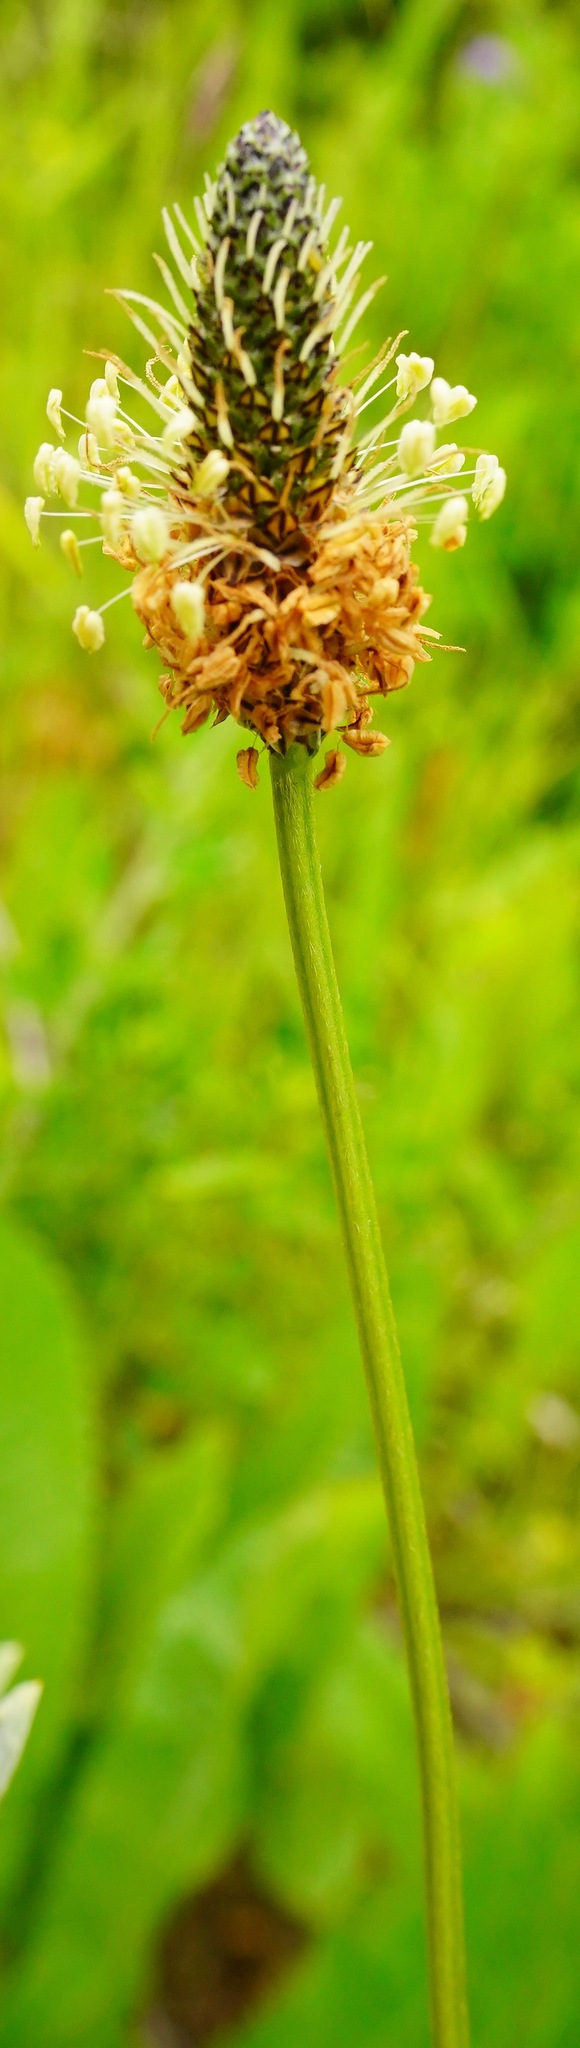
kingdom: Plantae
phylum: Tracheophyta
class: Magnoliopsida
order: Lamiales
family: Plantaginaceae
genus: Plantago
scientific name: Plantago lanceolata
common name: Ribwort plantain
